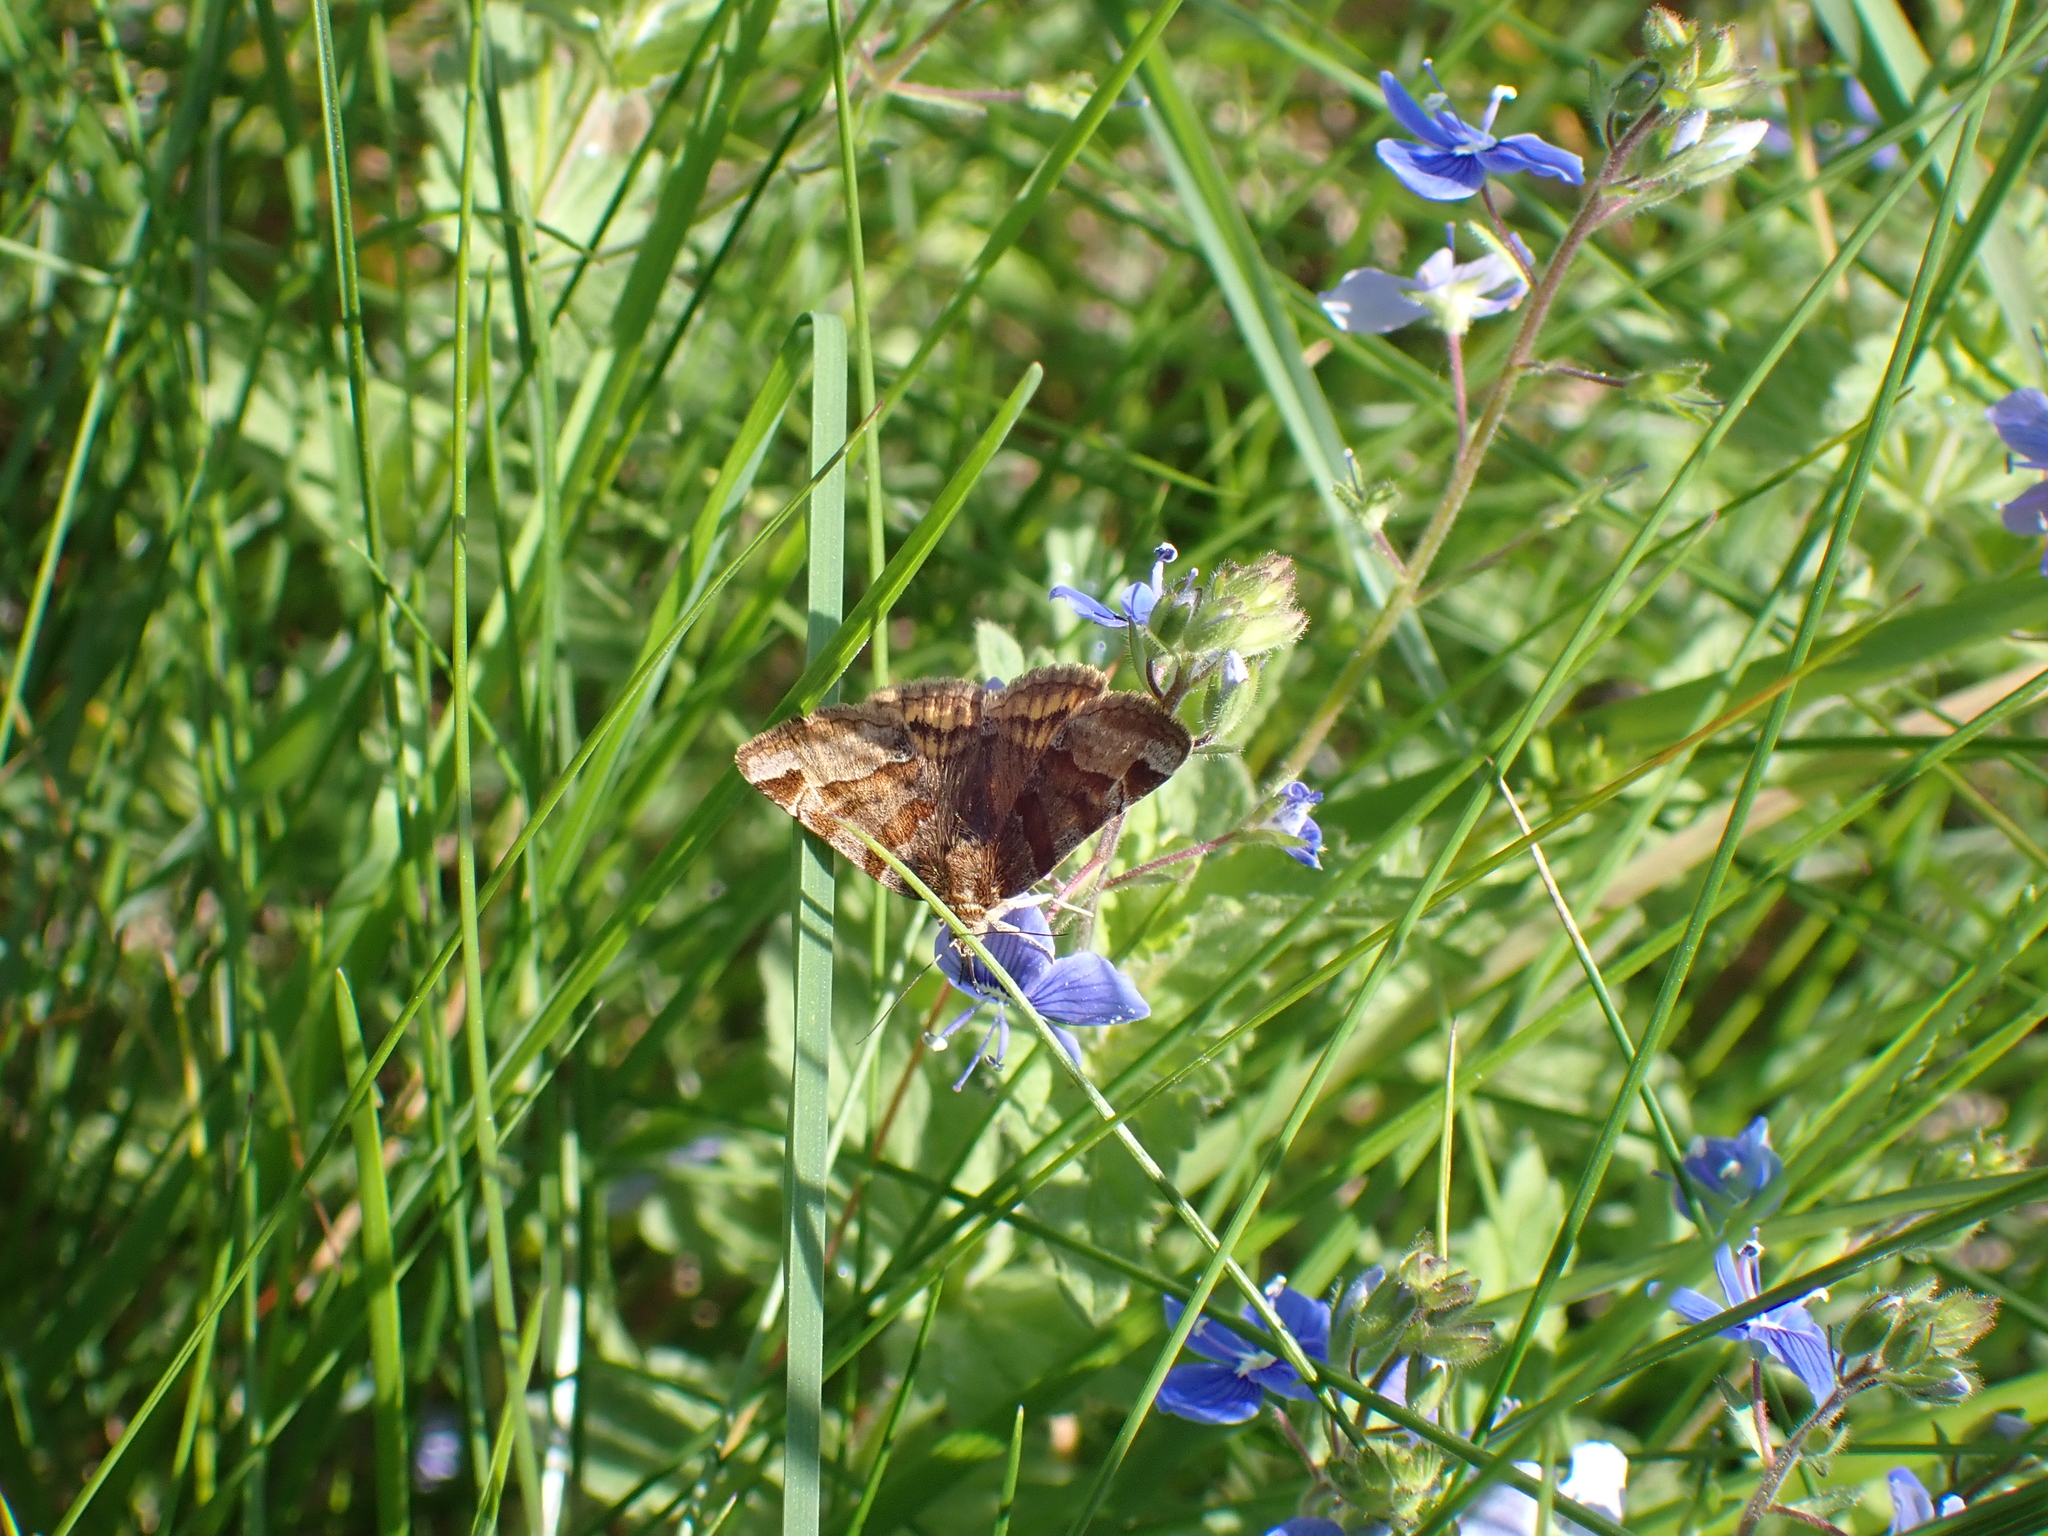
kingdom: Animalia
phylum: Arthropoda
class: Insecta
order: Lepidoptera
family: Erebidae
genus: Euclidia
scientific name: Euclidia glyphica
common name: Burnet companion
